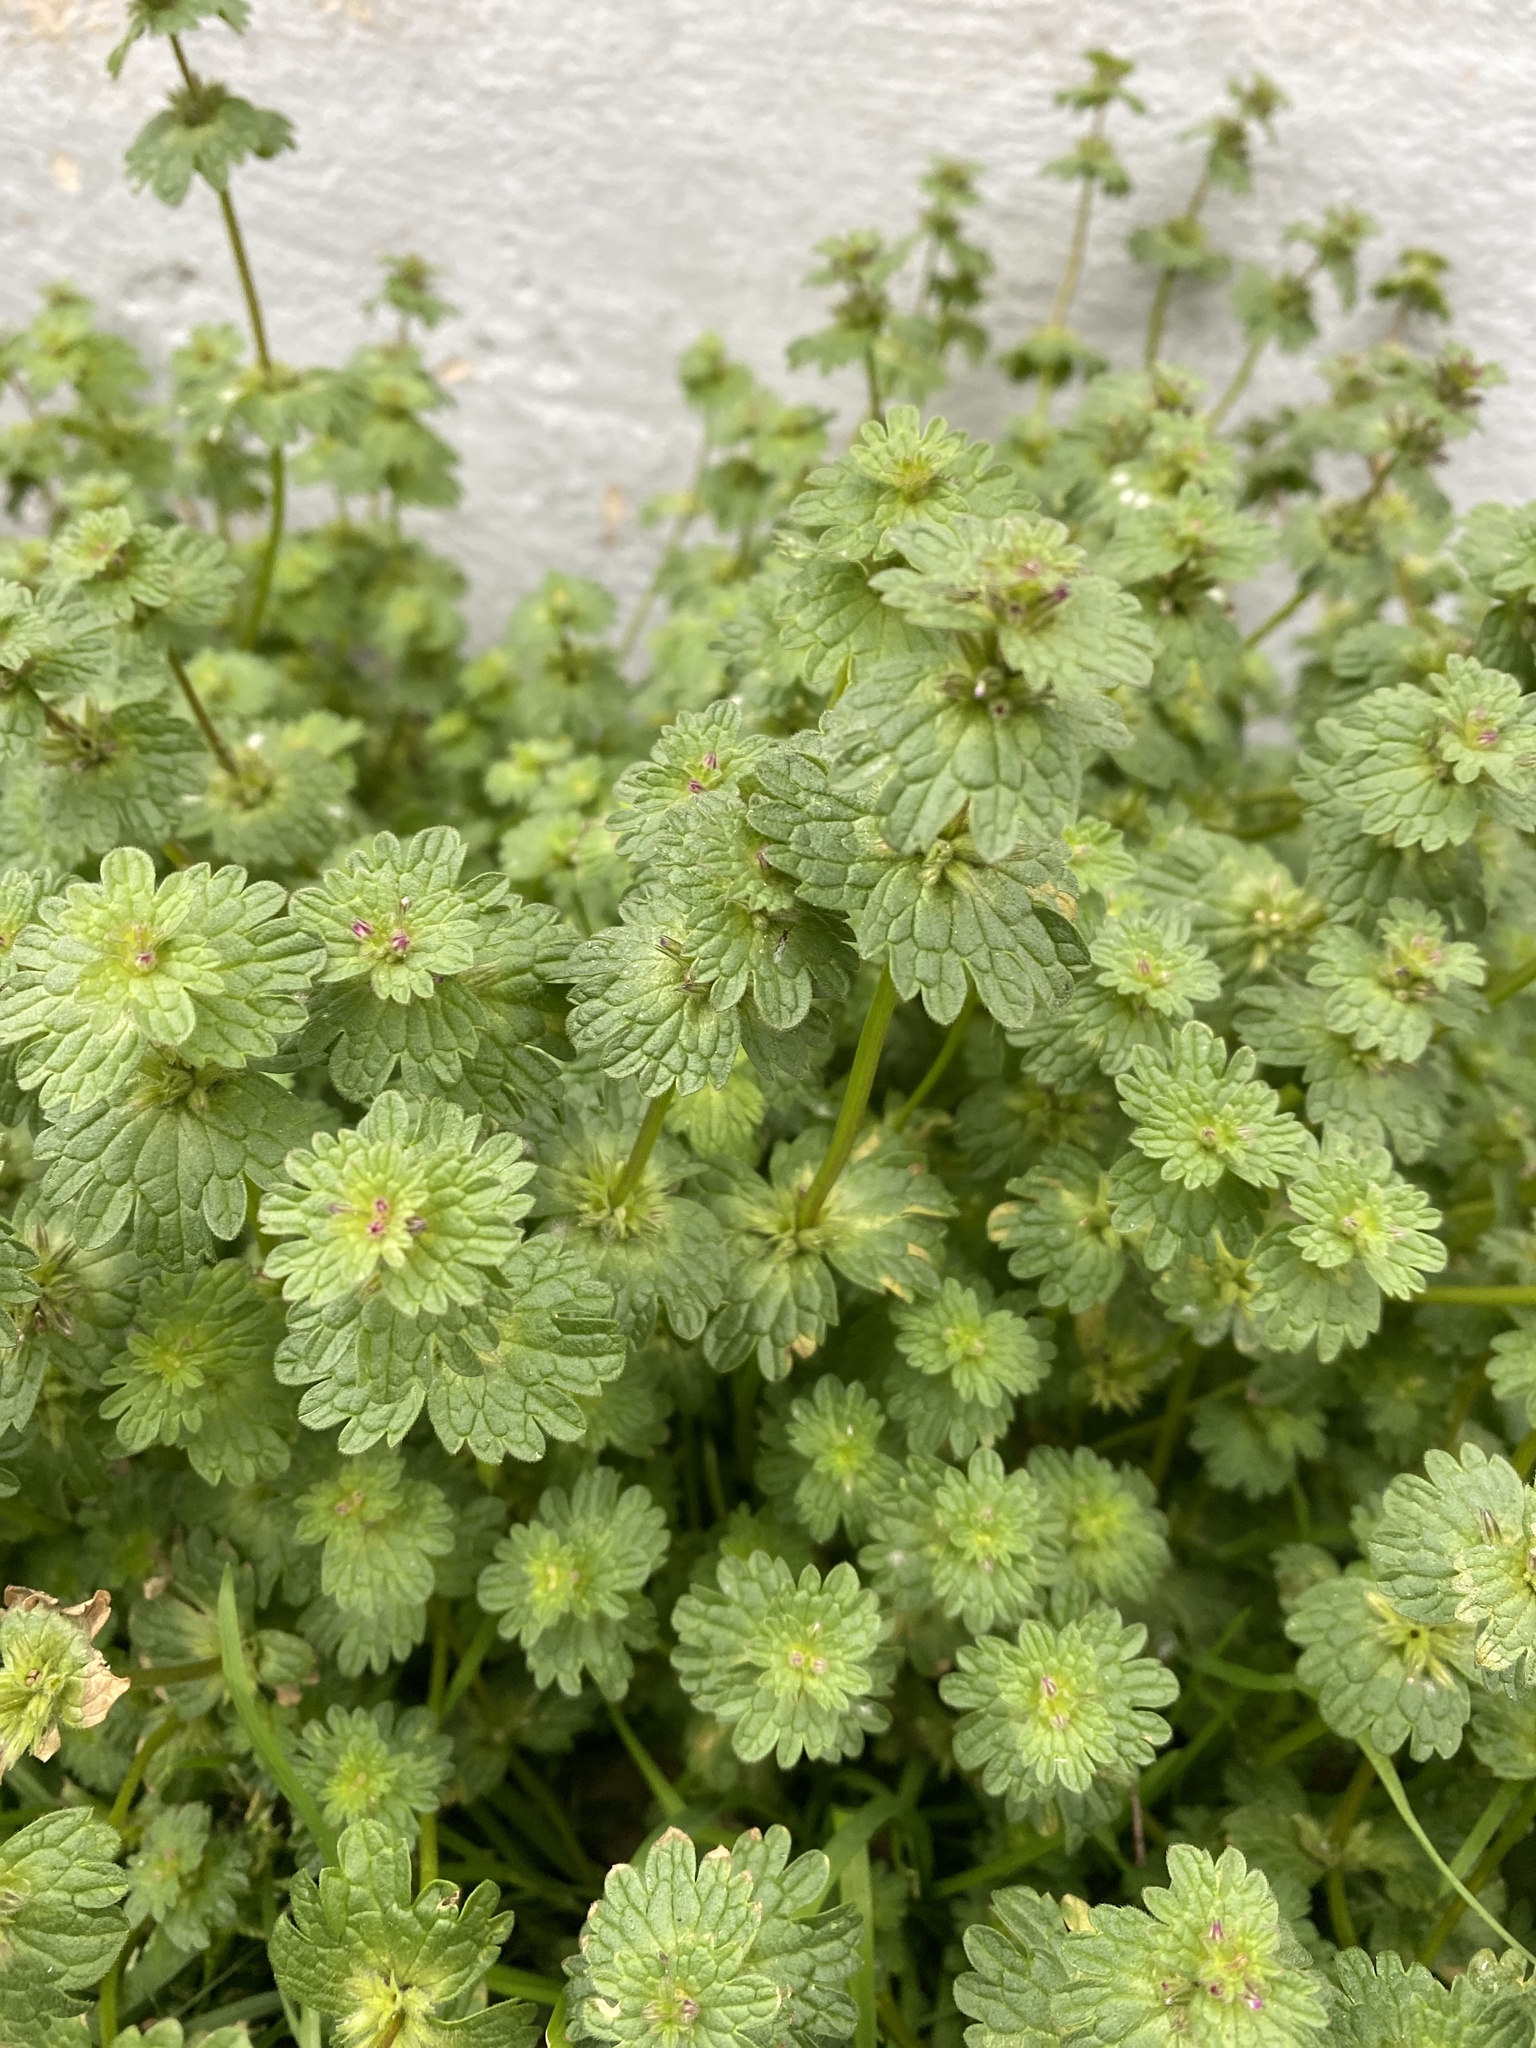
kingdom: Plantae
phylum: Tracheophyta
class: Magnoliopsida
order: Lamiales
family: Lamiaceae
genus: Lamium
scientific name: Lamium amplexicaule
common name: Henbit dead-nettle
